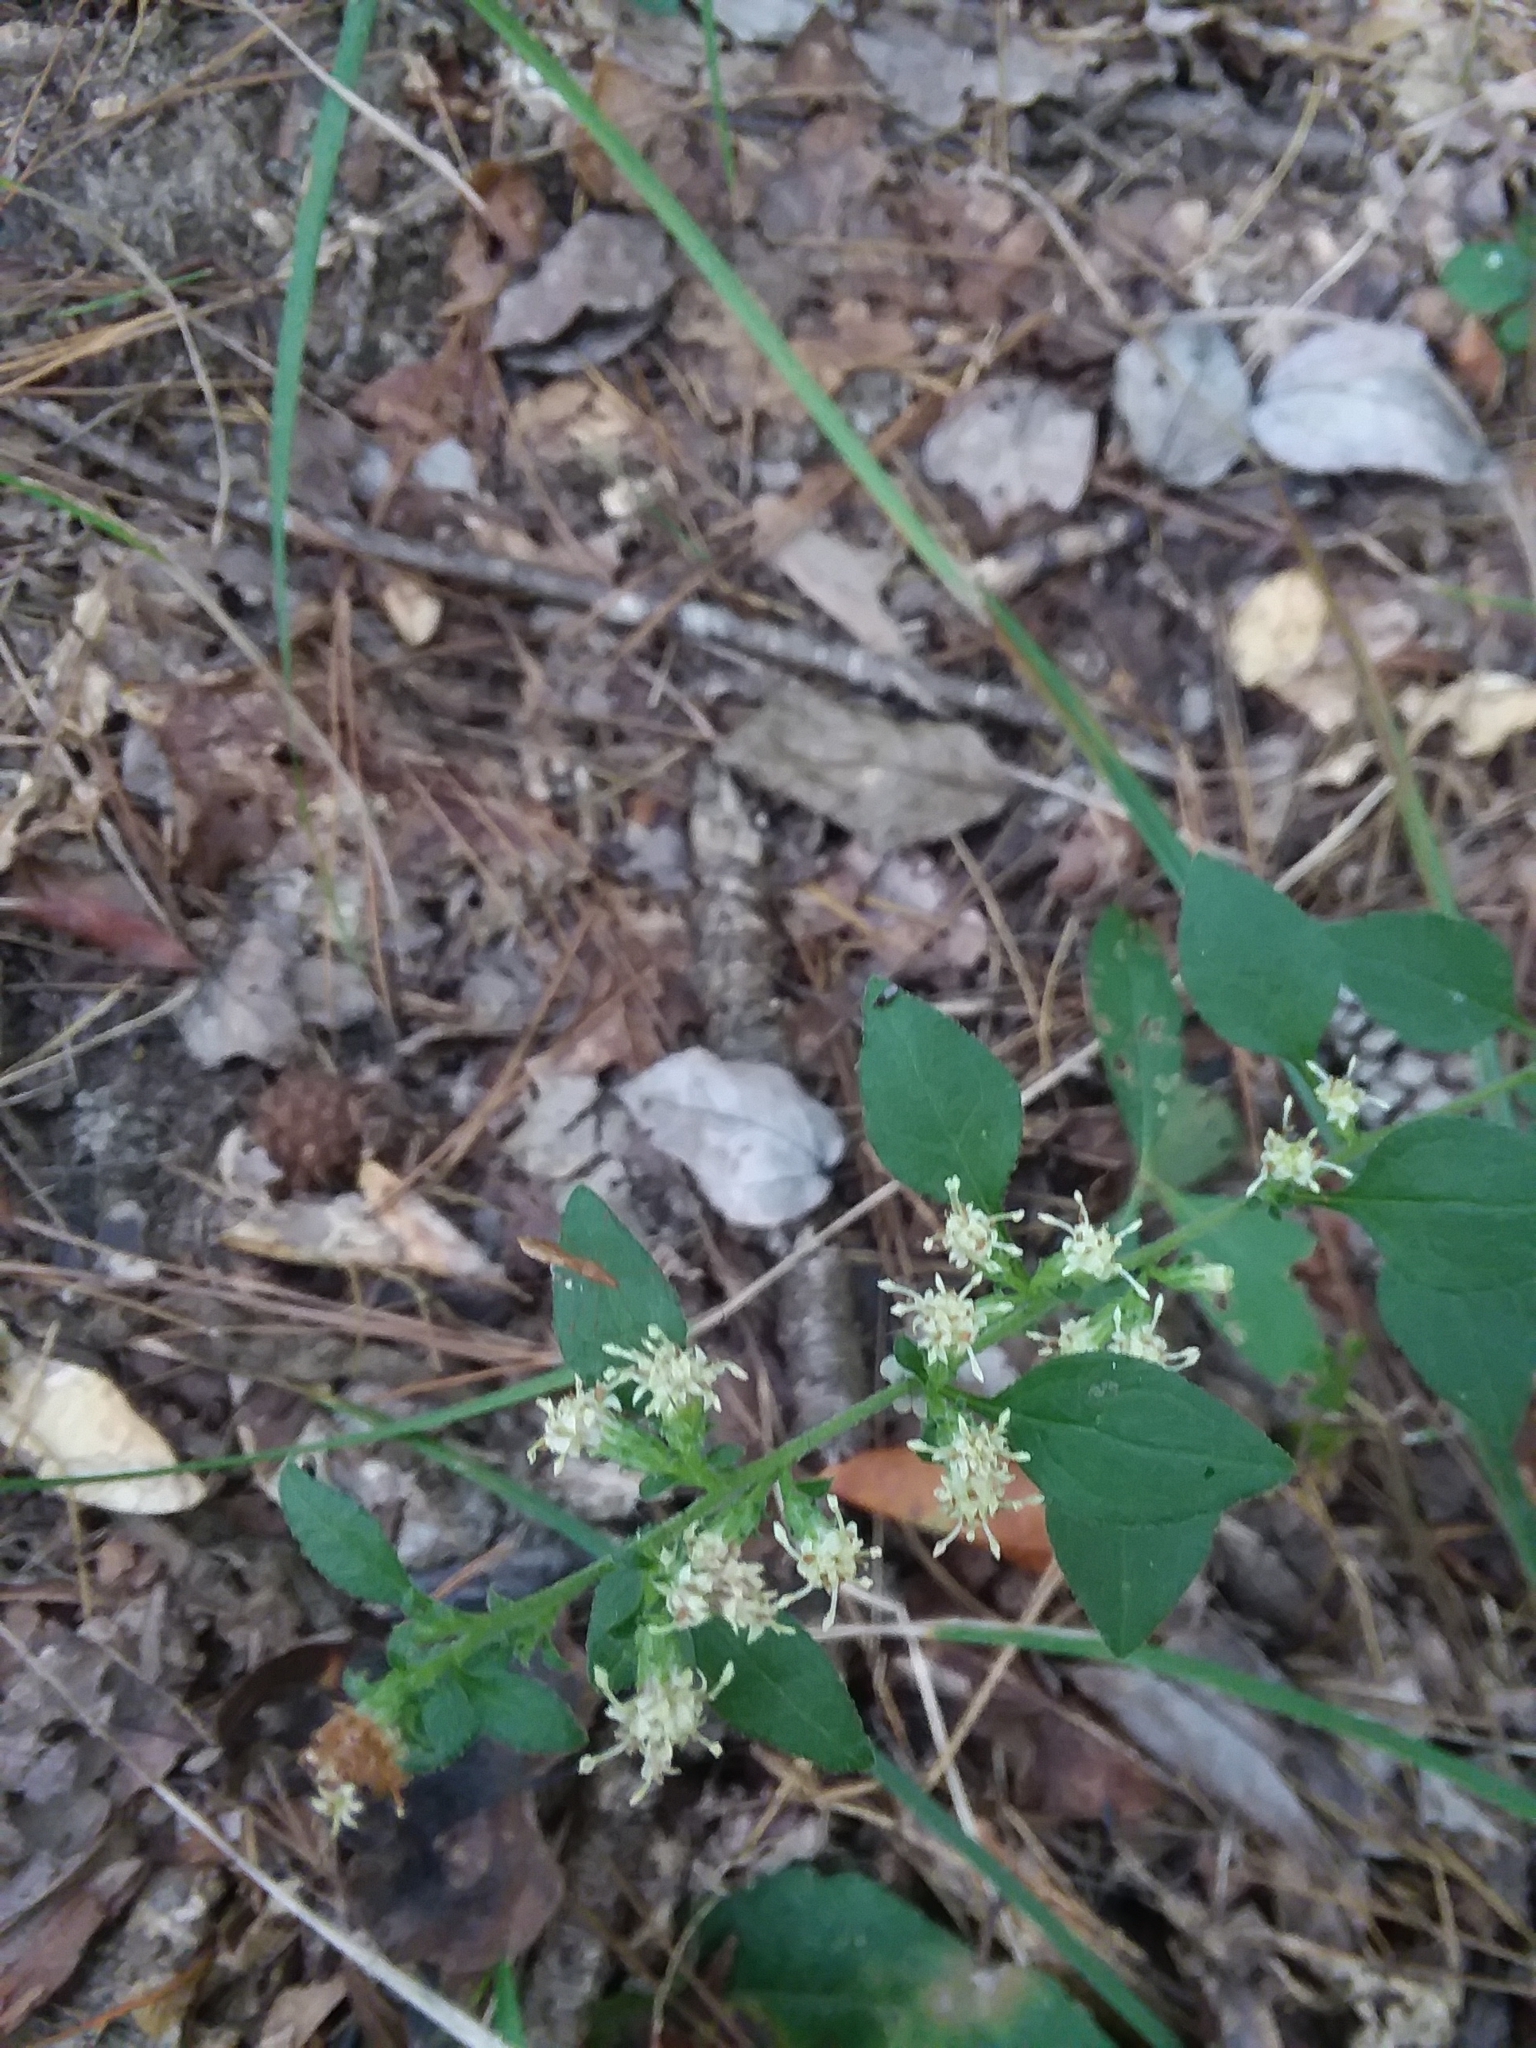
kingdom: Plantae
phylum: Tracheophyta
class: Magnoliopsida
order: Asterales
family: Asteraceae
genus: Solidago
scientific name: Solidago discoidea
